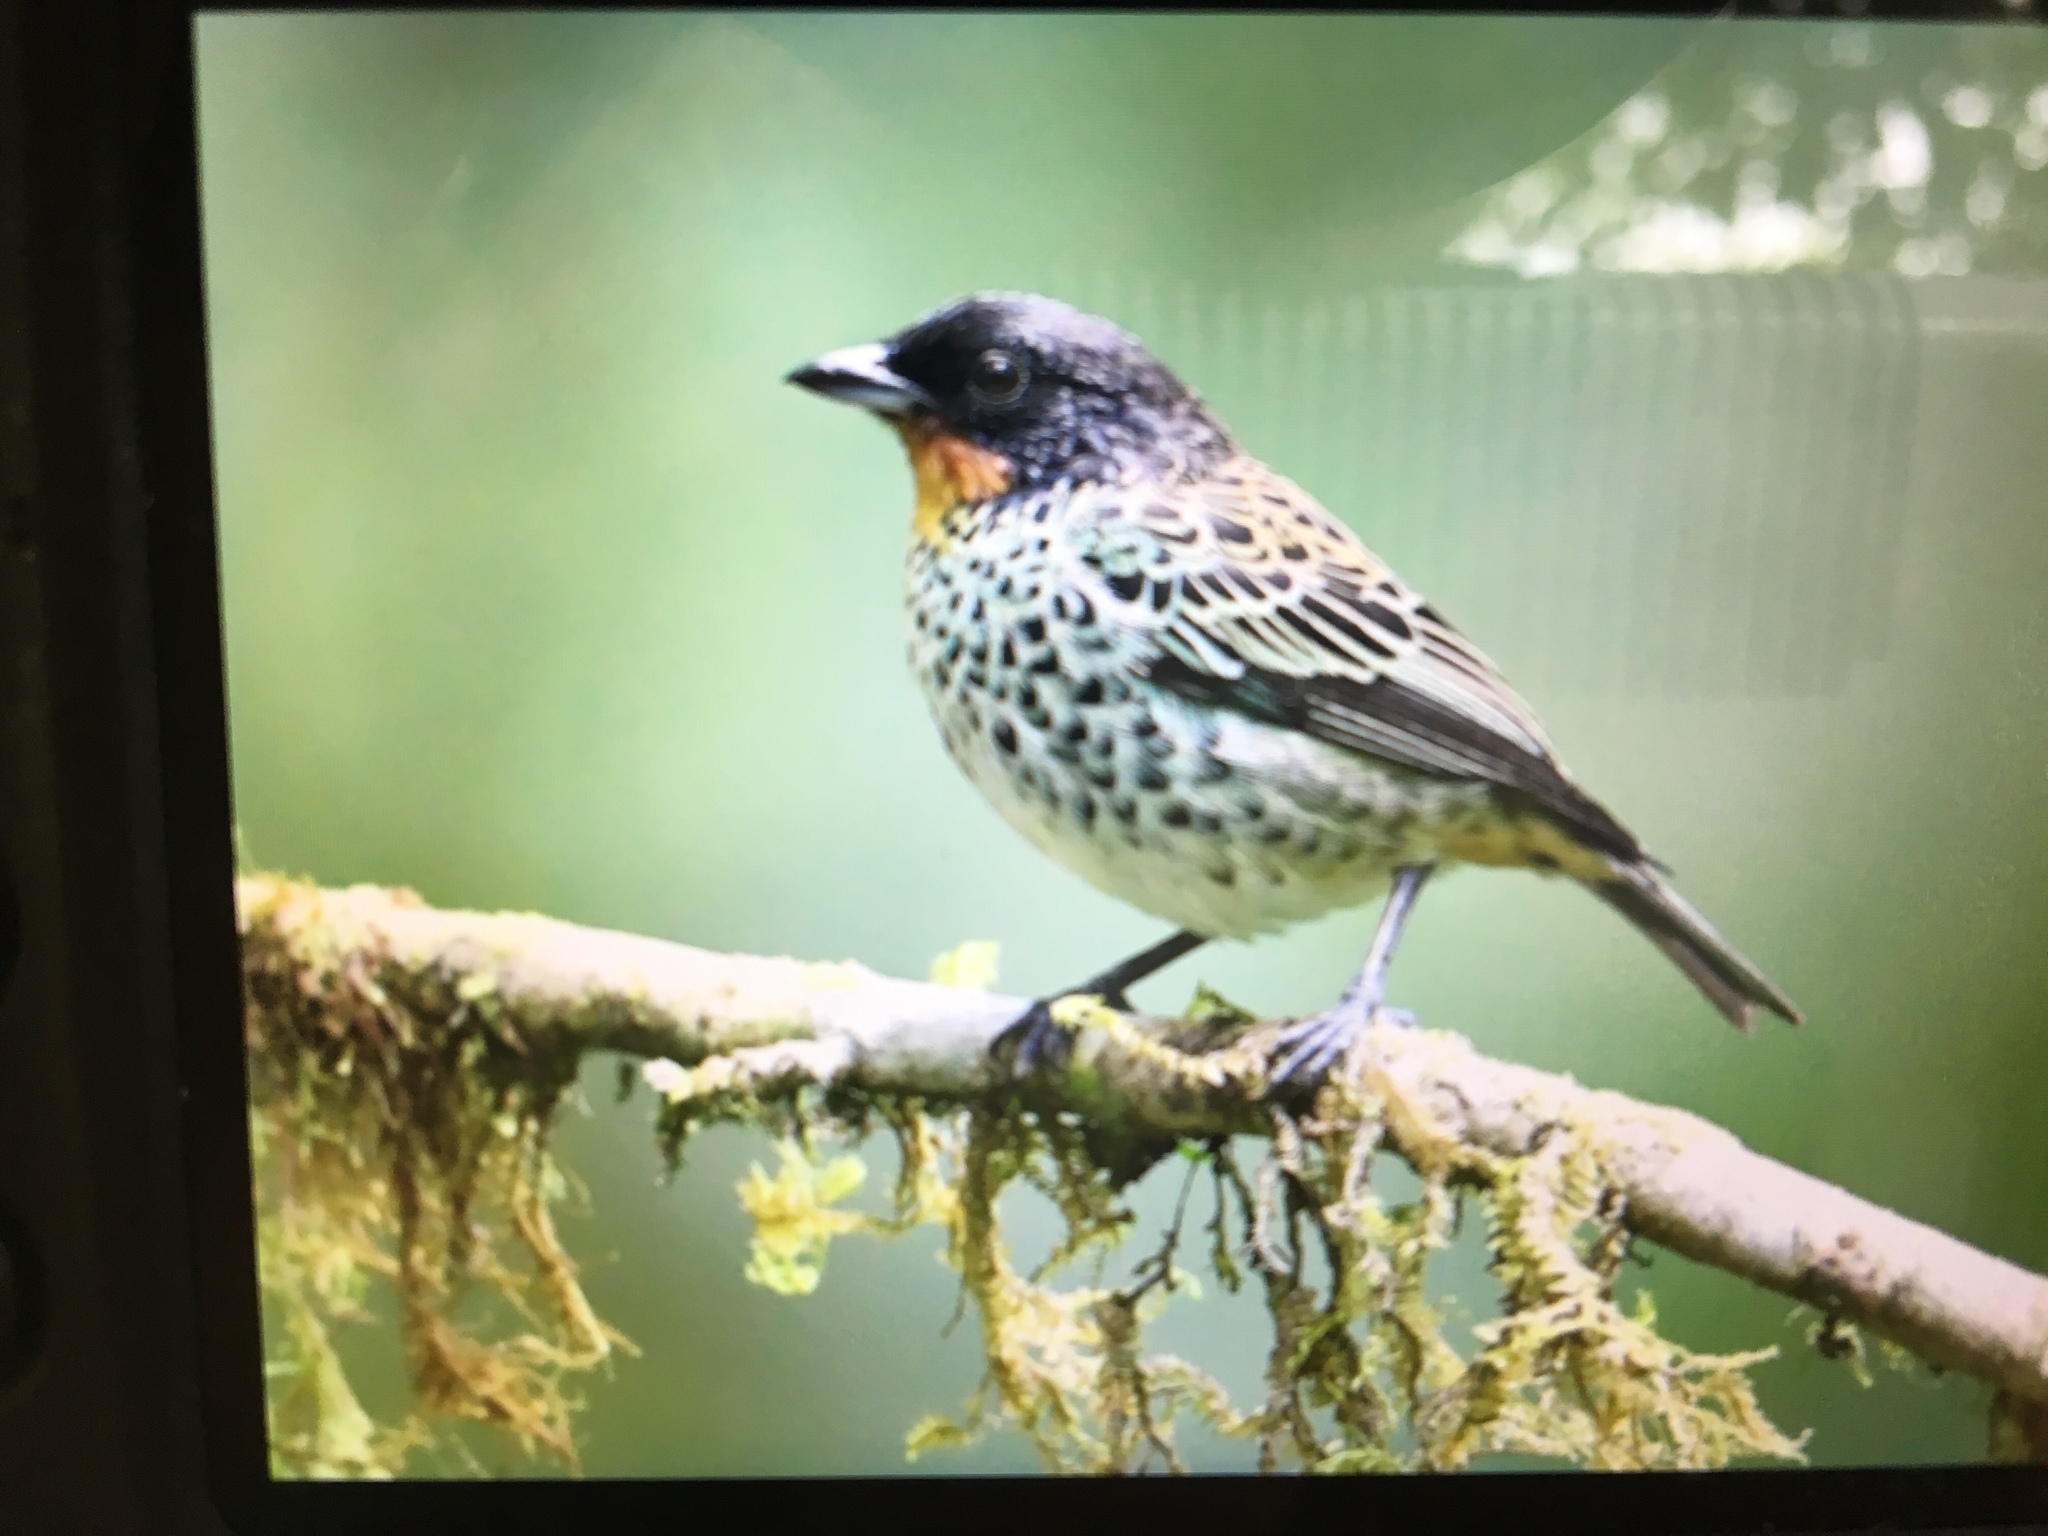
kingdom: Animalia
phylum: Chordata
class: Aves
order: Passeriformes
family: Thraupidae
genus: Ixothraupis
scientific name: Ixothraupis rufigula
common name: Rufous-throated tanager
